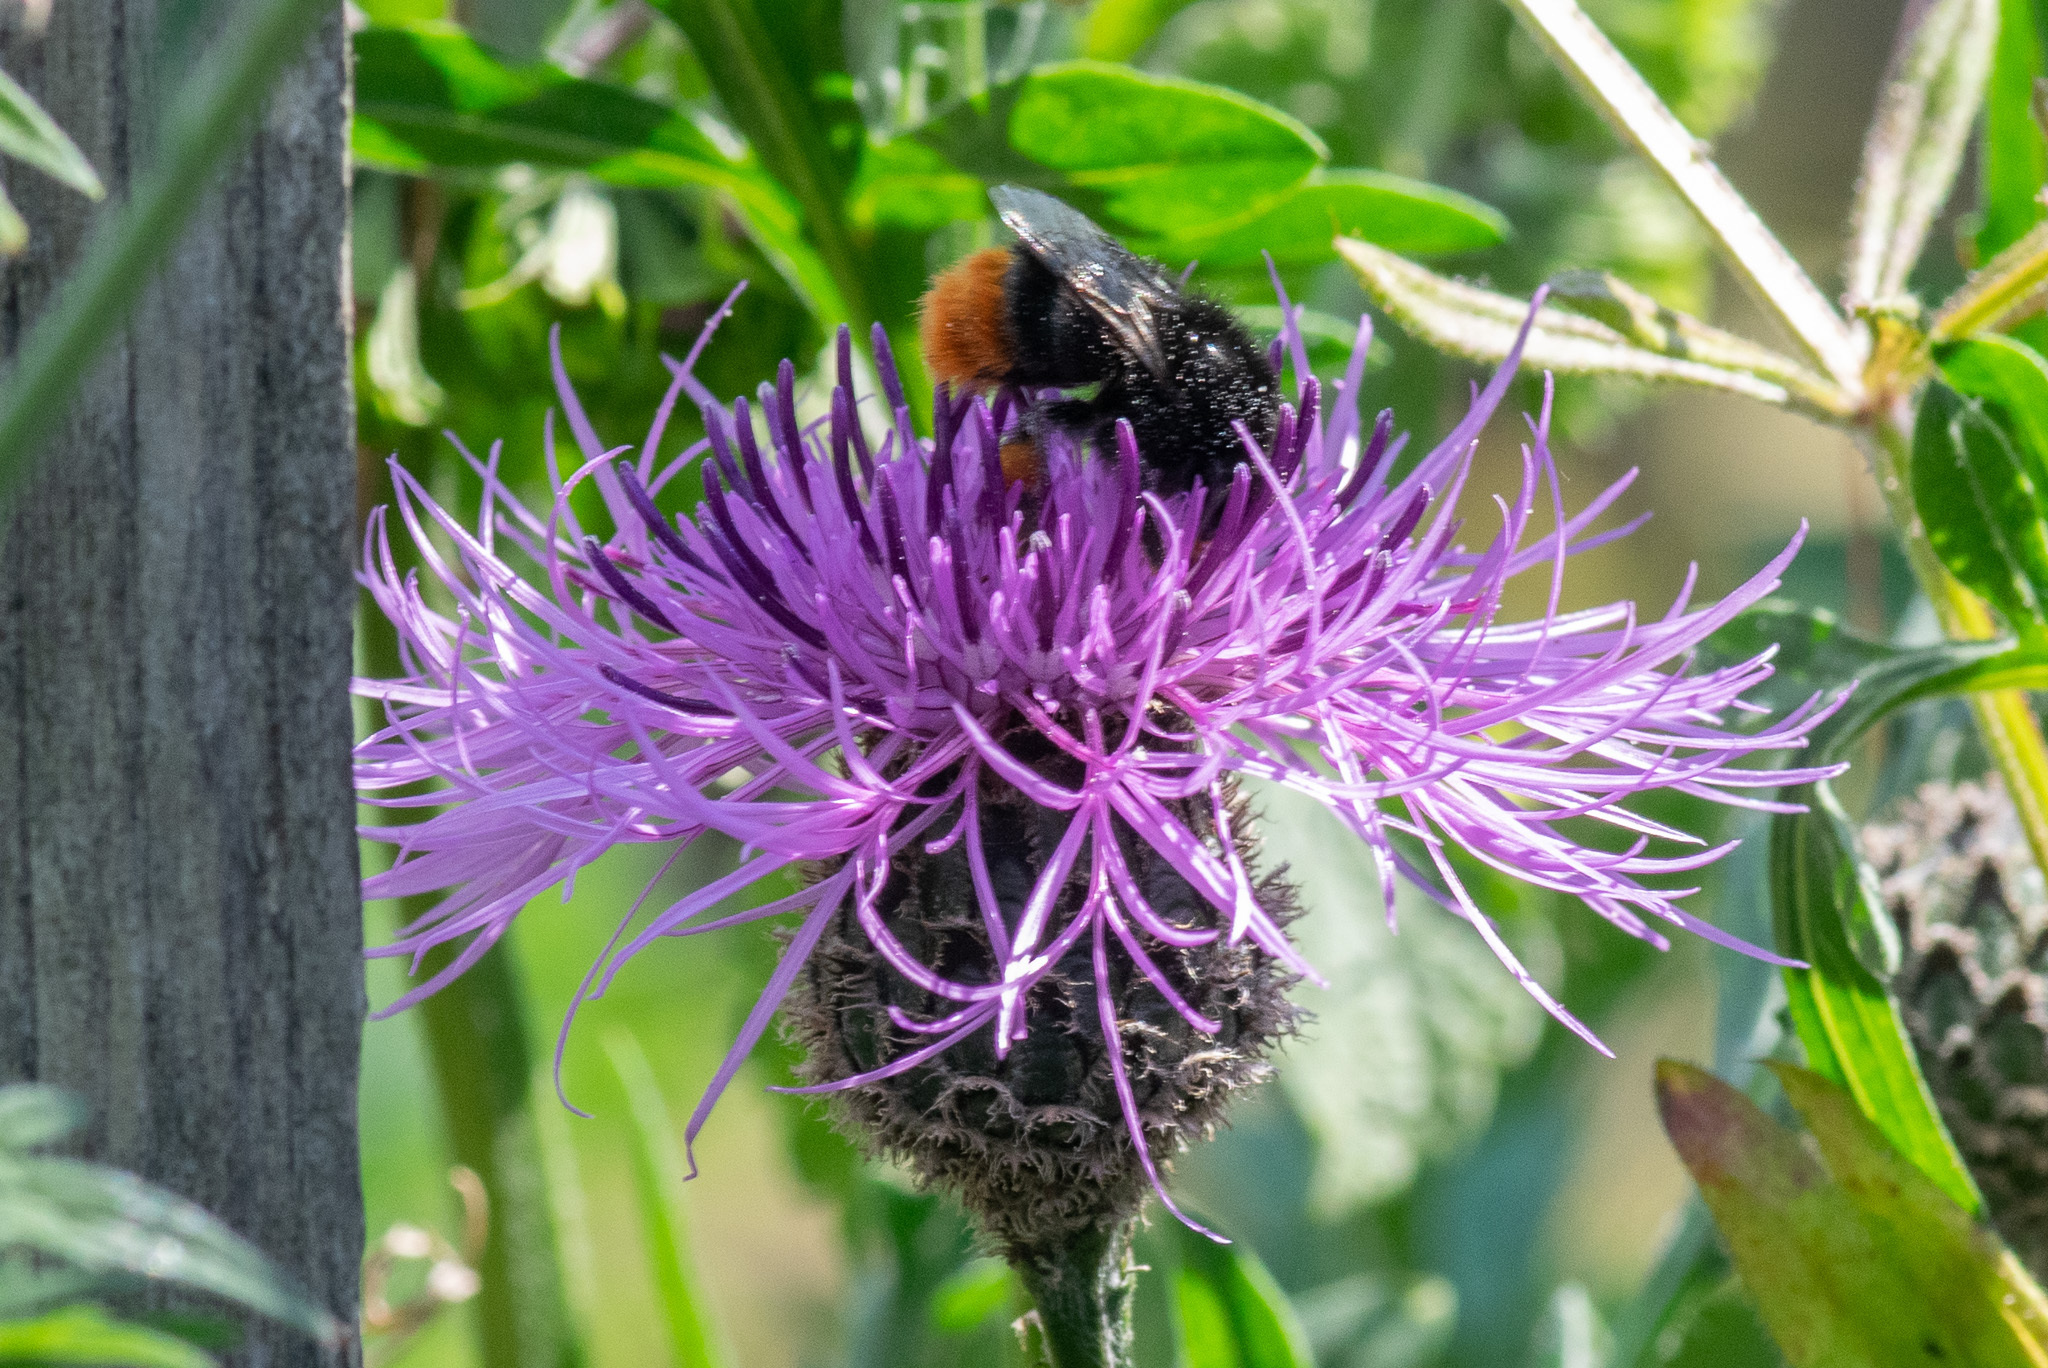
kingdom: Animalia
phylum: Arthropoda
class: Insecta
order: Hymenoptera
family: Apidae
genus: Bombus
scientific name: Bombus lapidarius
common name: Large red-tailed humble-bee
